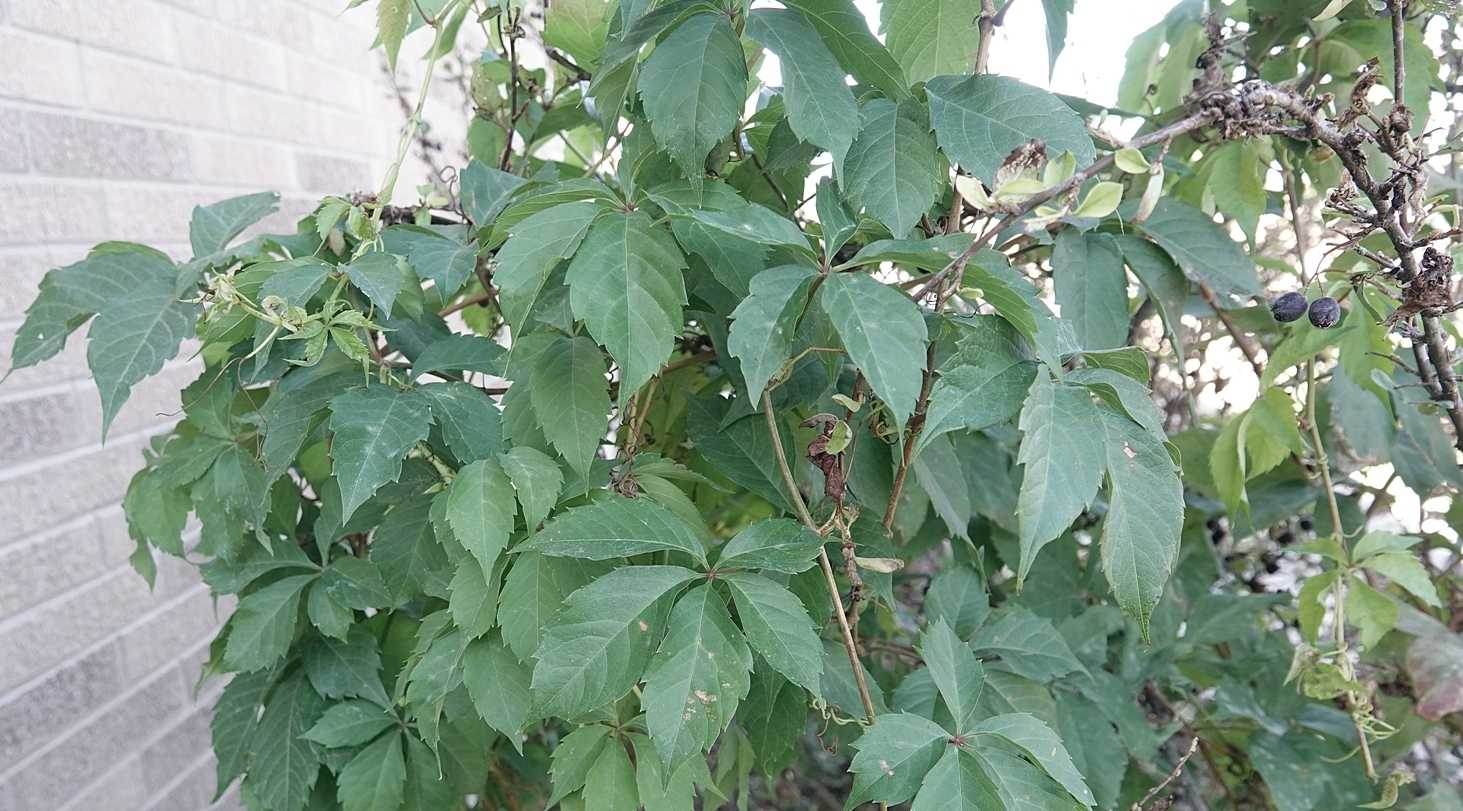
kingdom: Plantae
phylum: Tracheophyta
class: Magnoliopsida
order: Vitales
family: Vitaceae
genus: Parthenocissus
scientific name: Parthenocissus quinquefolia
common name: Virginia-creeper
